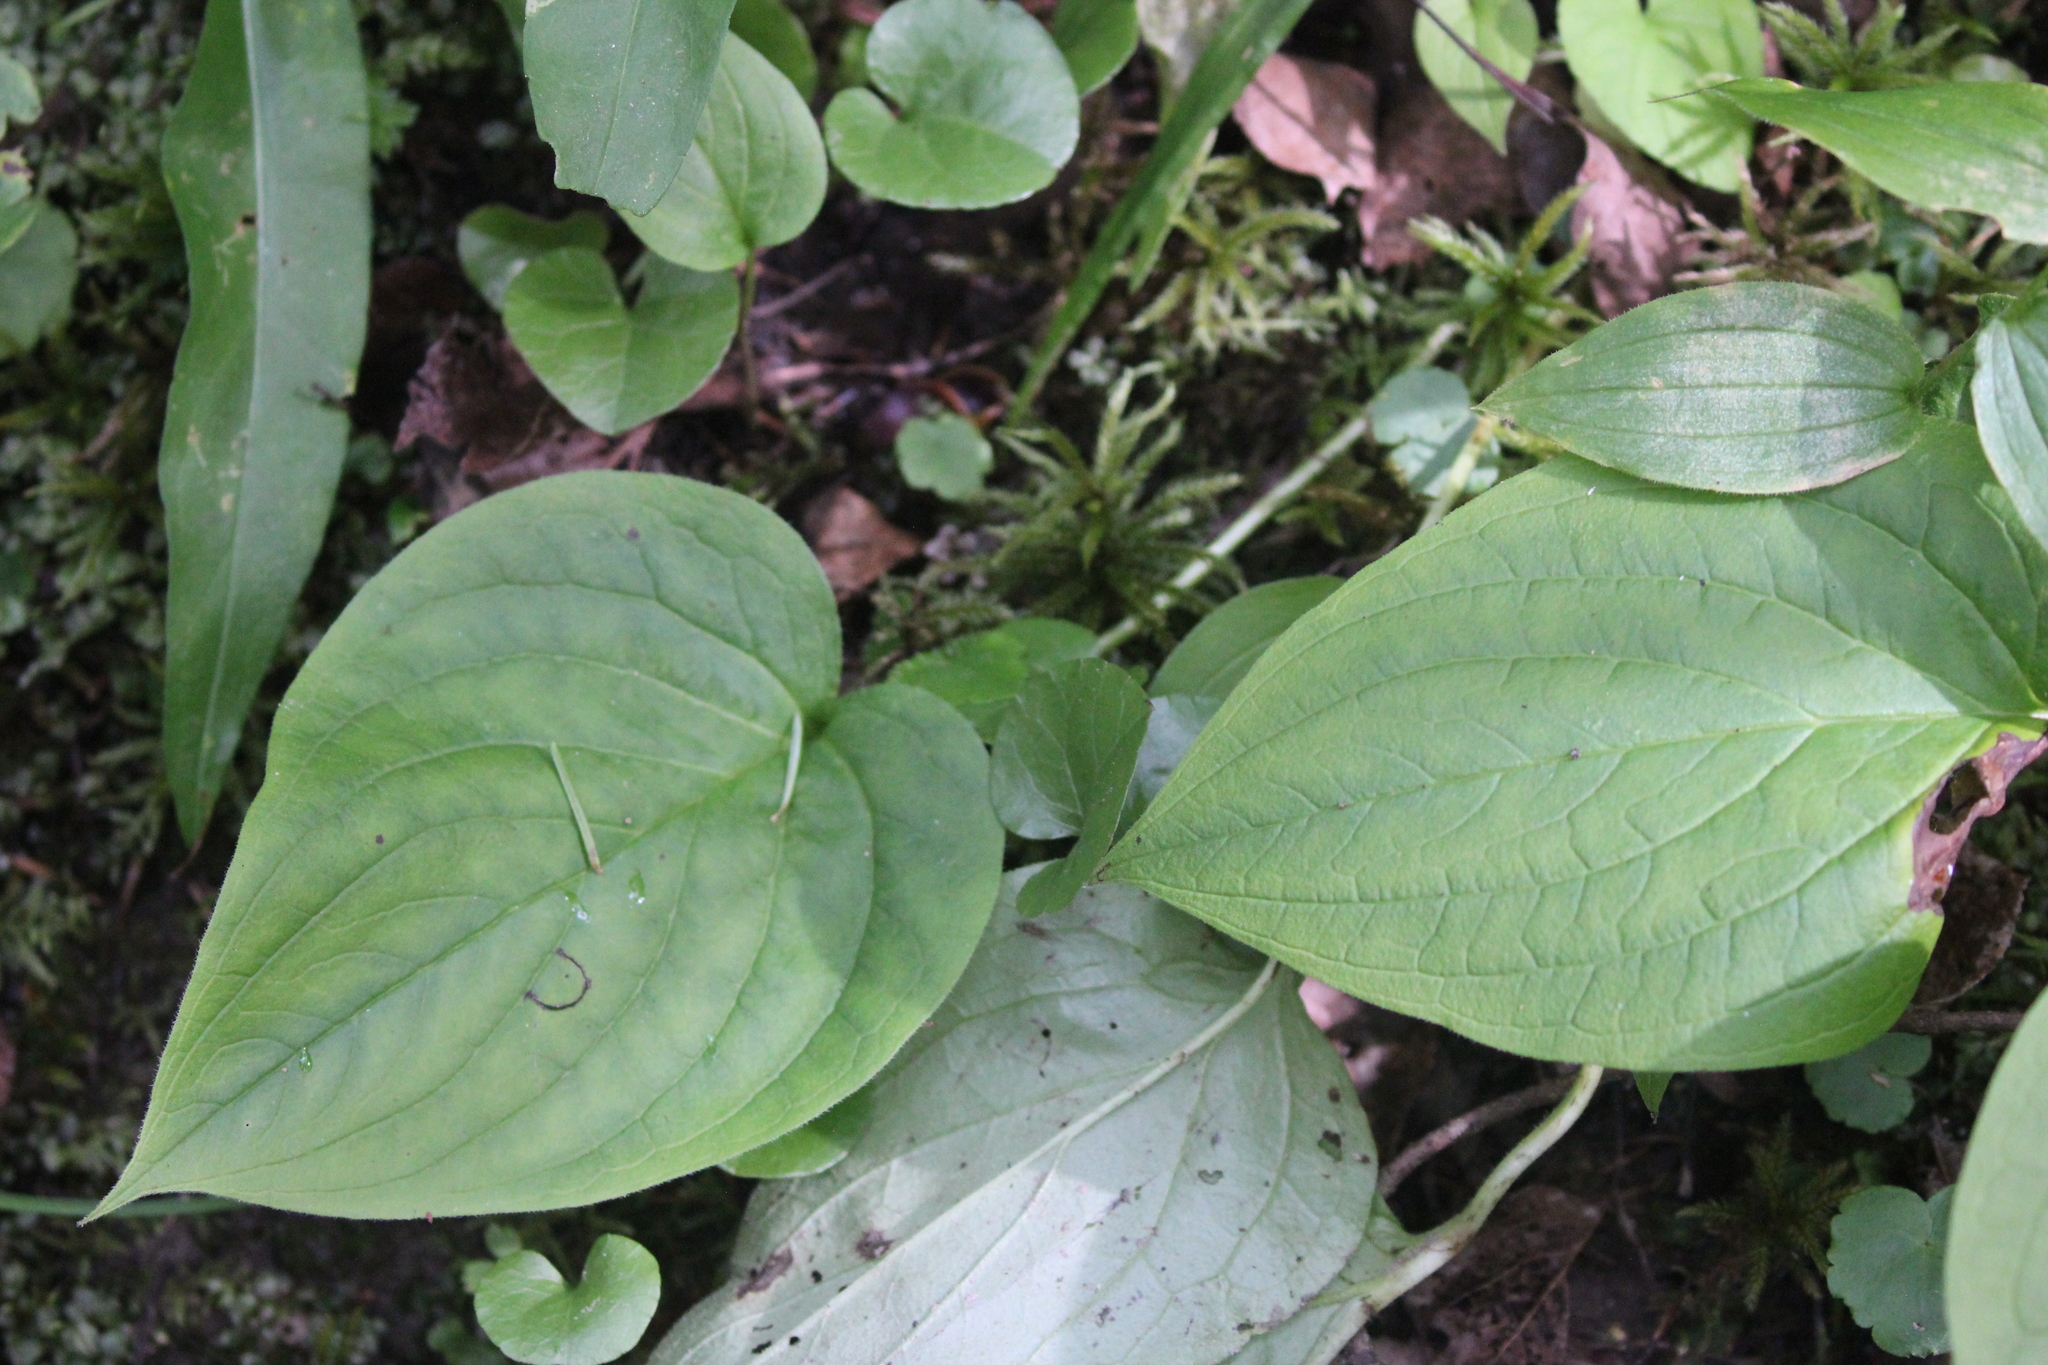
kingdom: Plantae
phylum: Tracheophyta
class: Magnoliopsida
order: Boraginales
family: Boraginaceae
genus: Mertensia
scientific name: Mertensia paniculata
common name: Panicled bluebells
